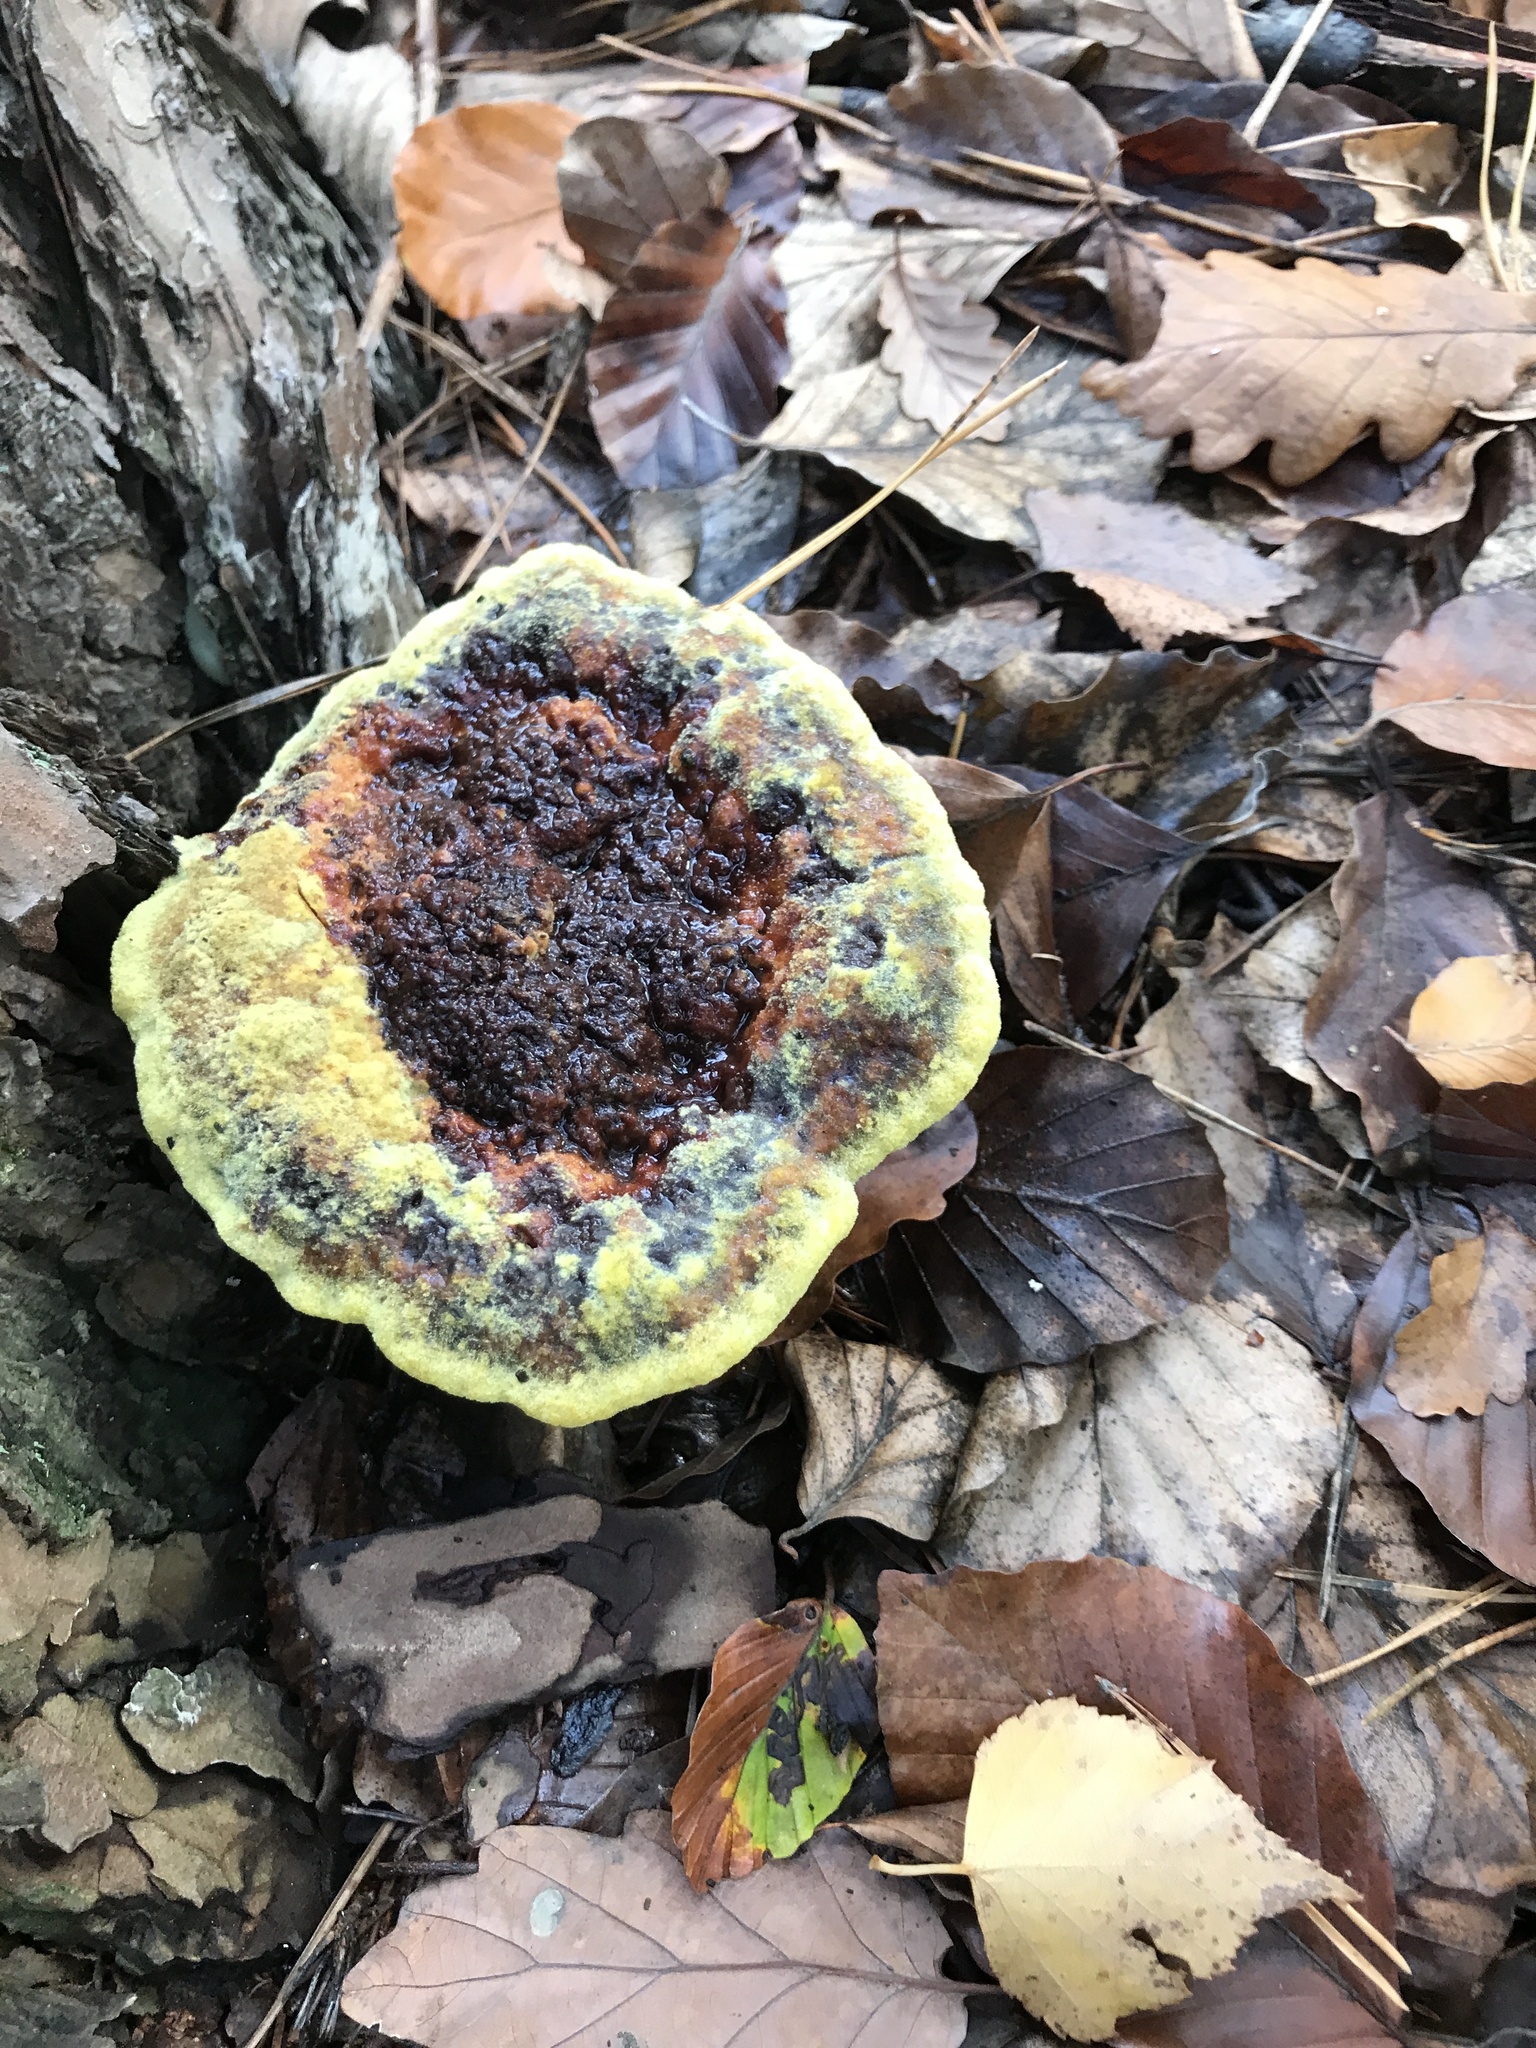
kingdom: Fungi
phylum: Basidiomycota
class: Agaricomycetes
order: Polyporales
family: Laetiporaceae
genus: Phaeolus
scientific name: Phaeolus schweinitzii
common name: Dyer's mazegill
